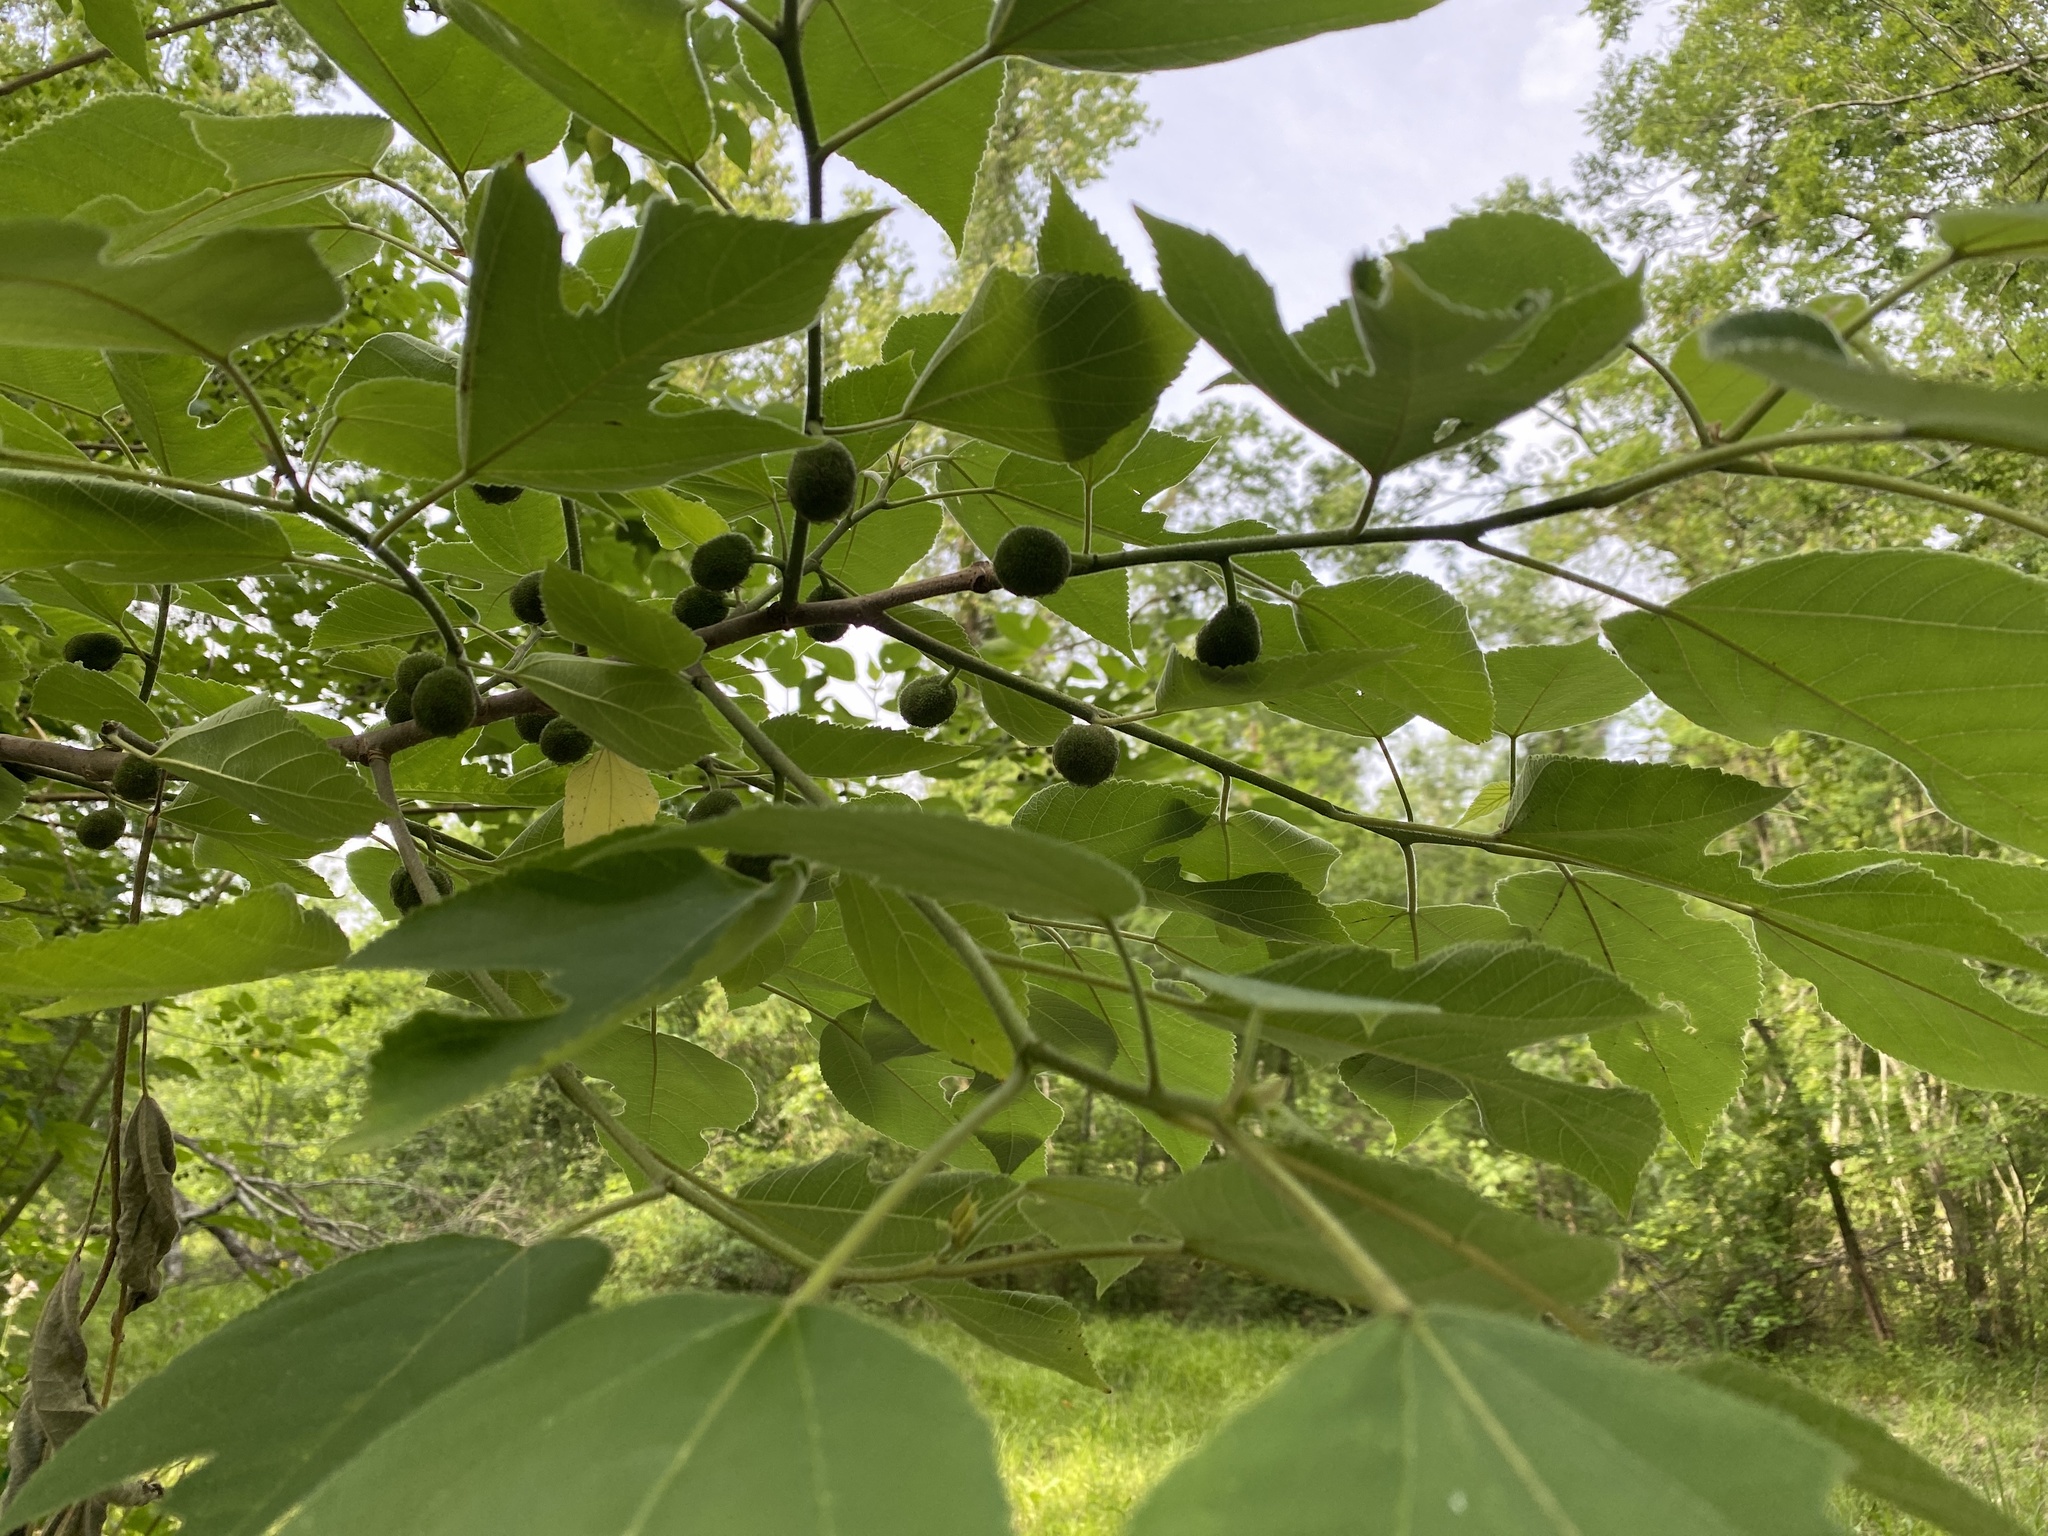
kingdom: Plantae
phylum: Tracheophyta
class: Magnoliopsida
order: Rosales
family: Moraceae
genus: Broussonetia
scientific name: Broussonetia papyrifera
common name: Paper mulberry
